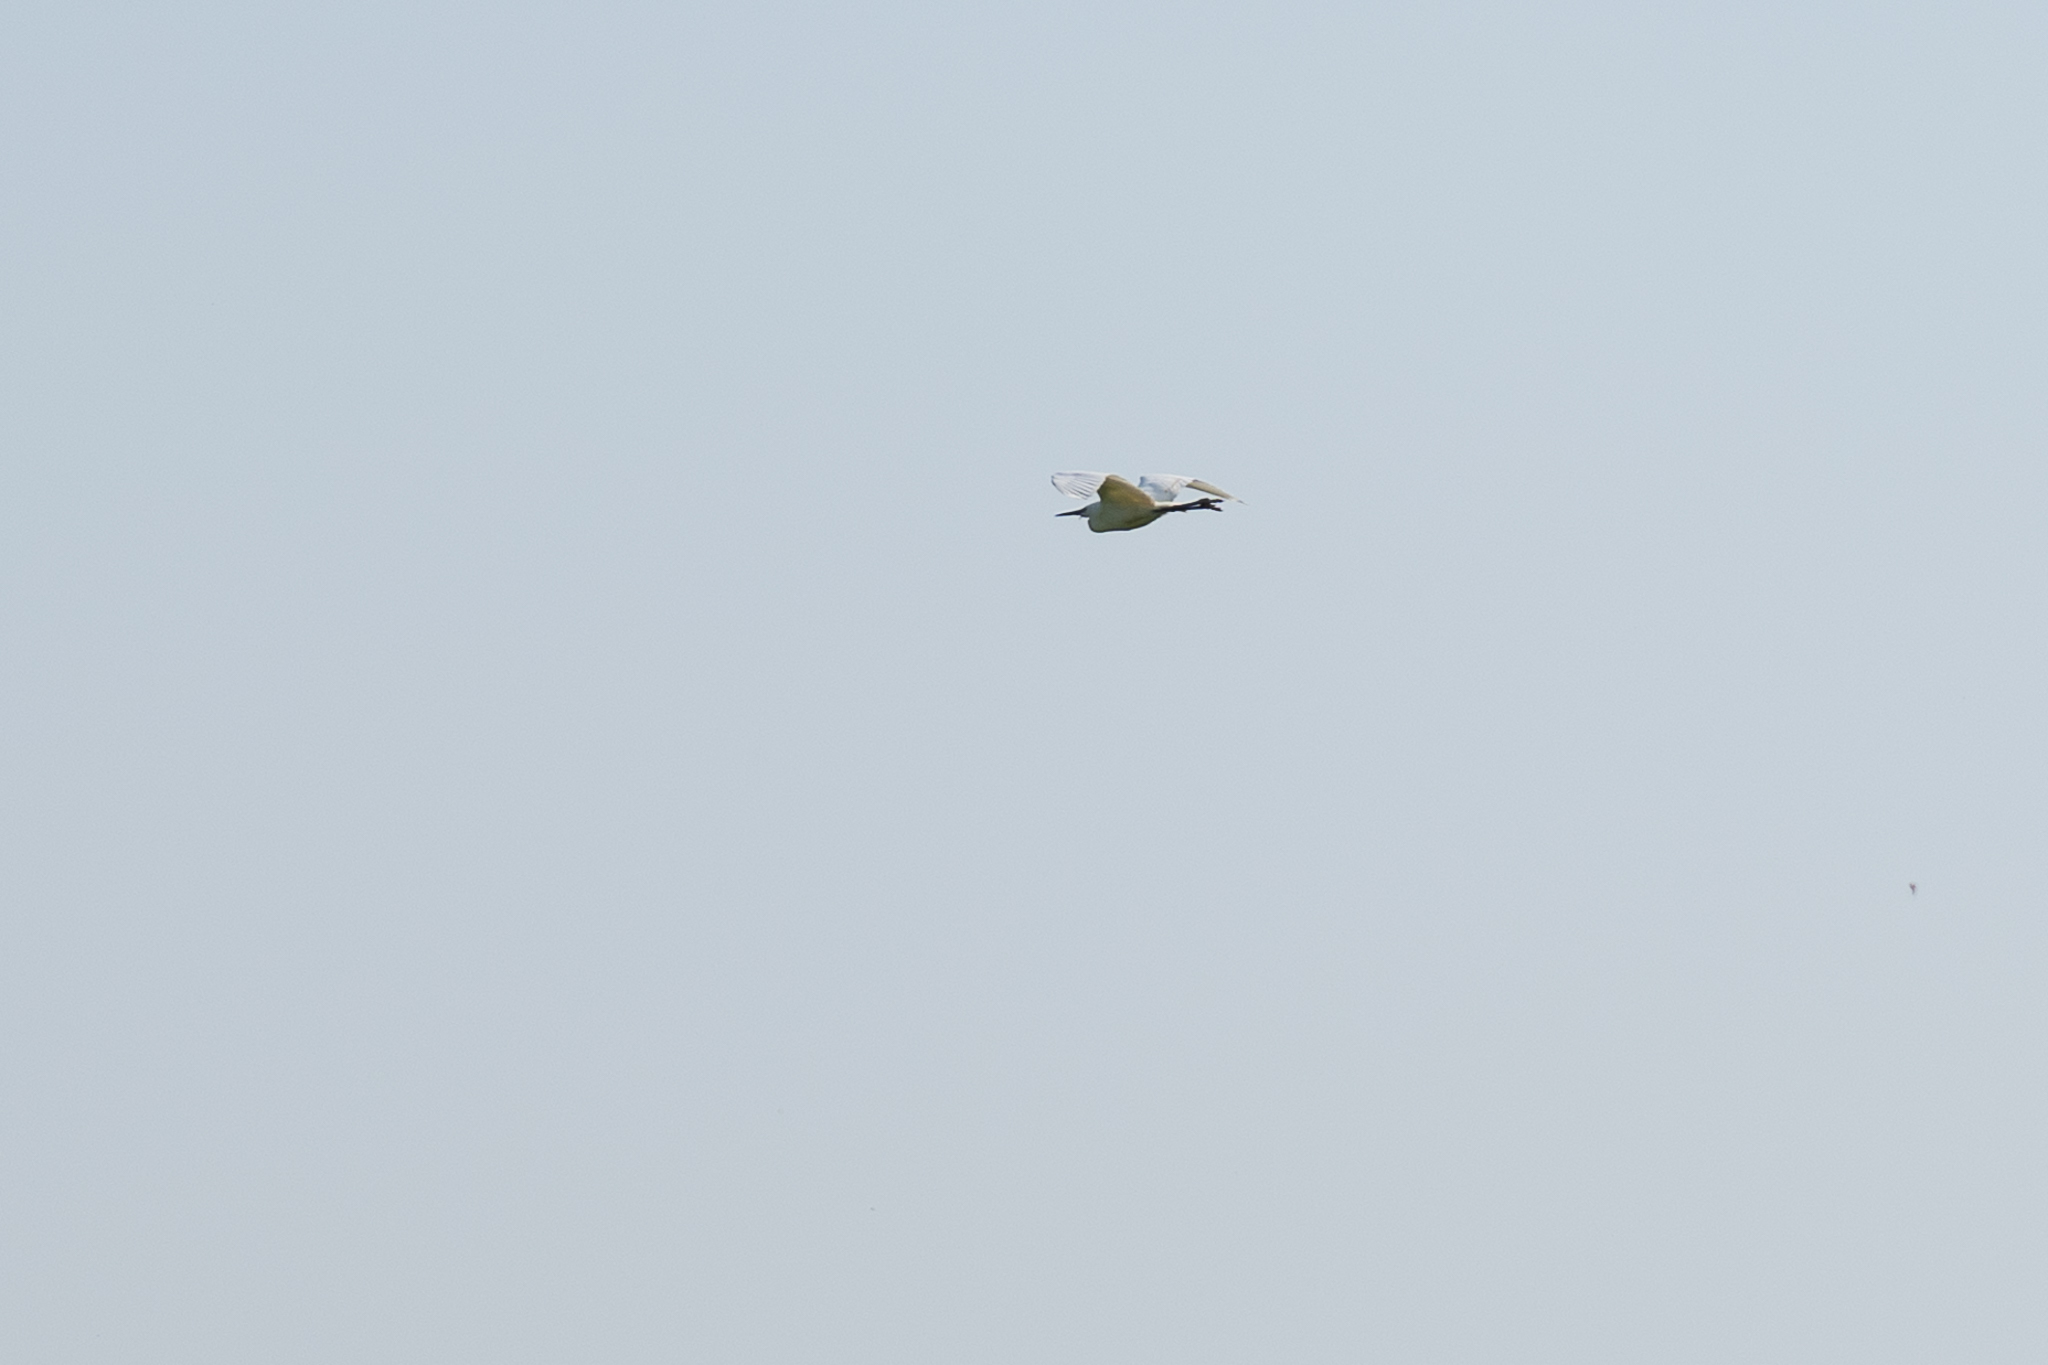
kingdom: Animalia
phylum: Chordata
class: Aves
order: Pelecaniformes
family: Ardeidae
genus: Egretta
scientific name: Egretta garzetta
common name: Little egret
